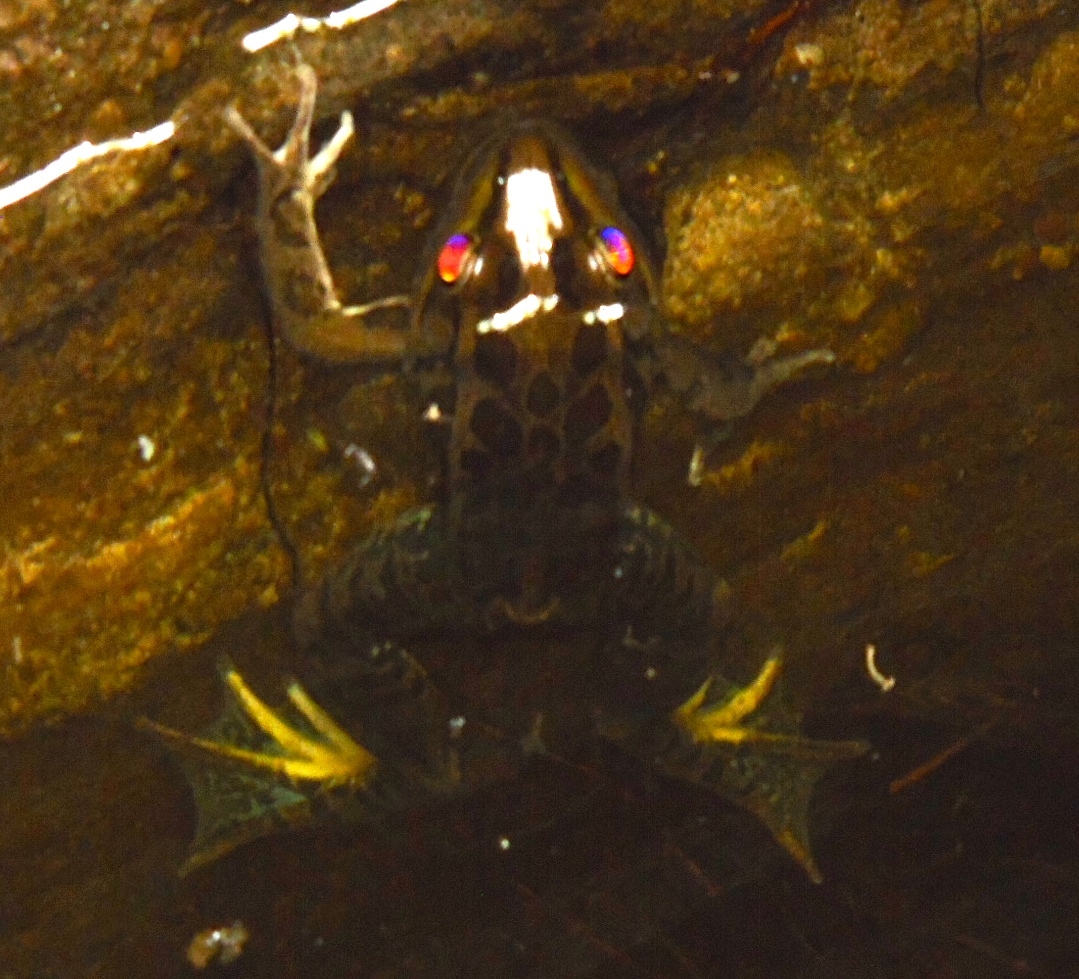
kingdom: Animalia
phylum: Chordata
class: Amphibia
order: Anura
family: Ranidae
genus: Lithobates
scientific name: Lithobates magnaocularis
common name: Northwest mexico leopard frog
